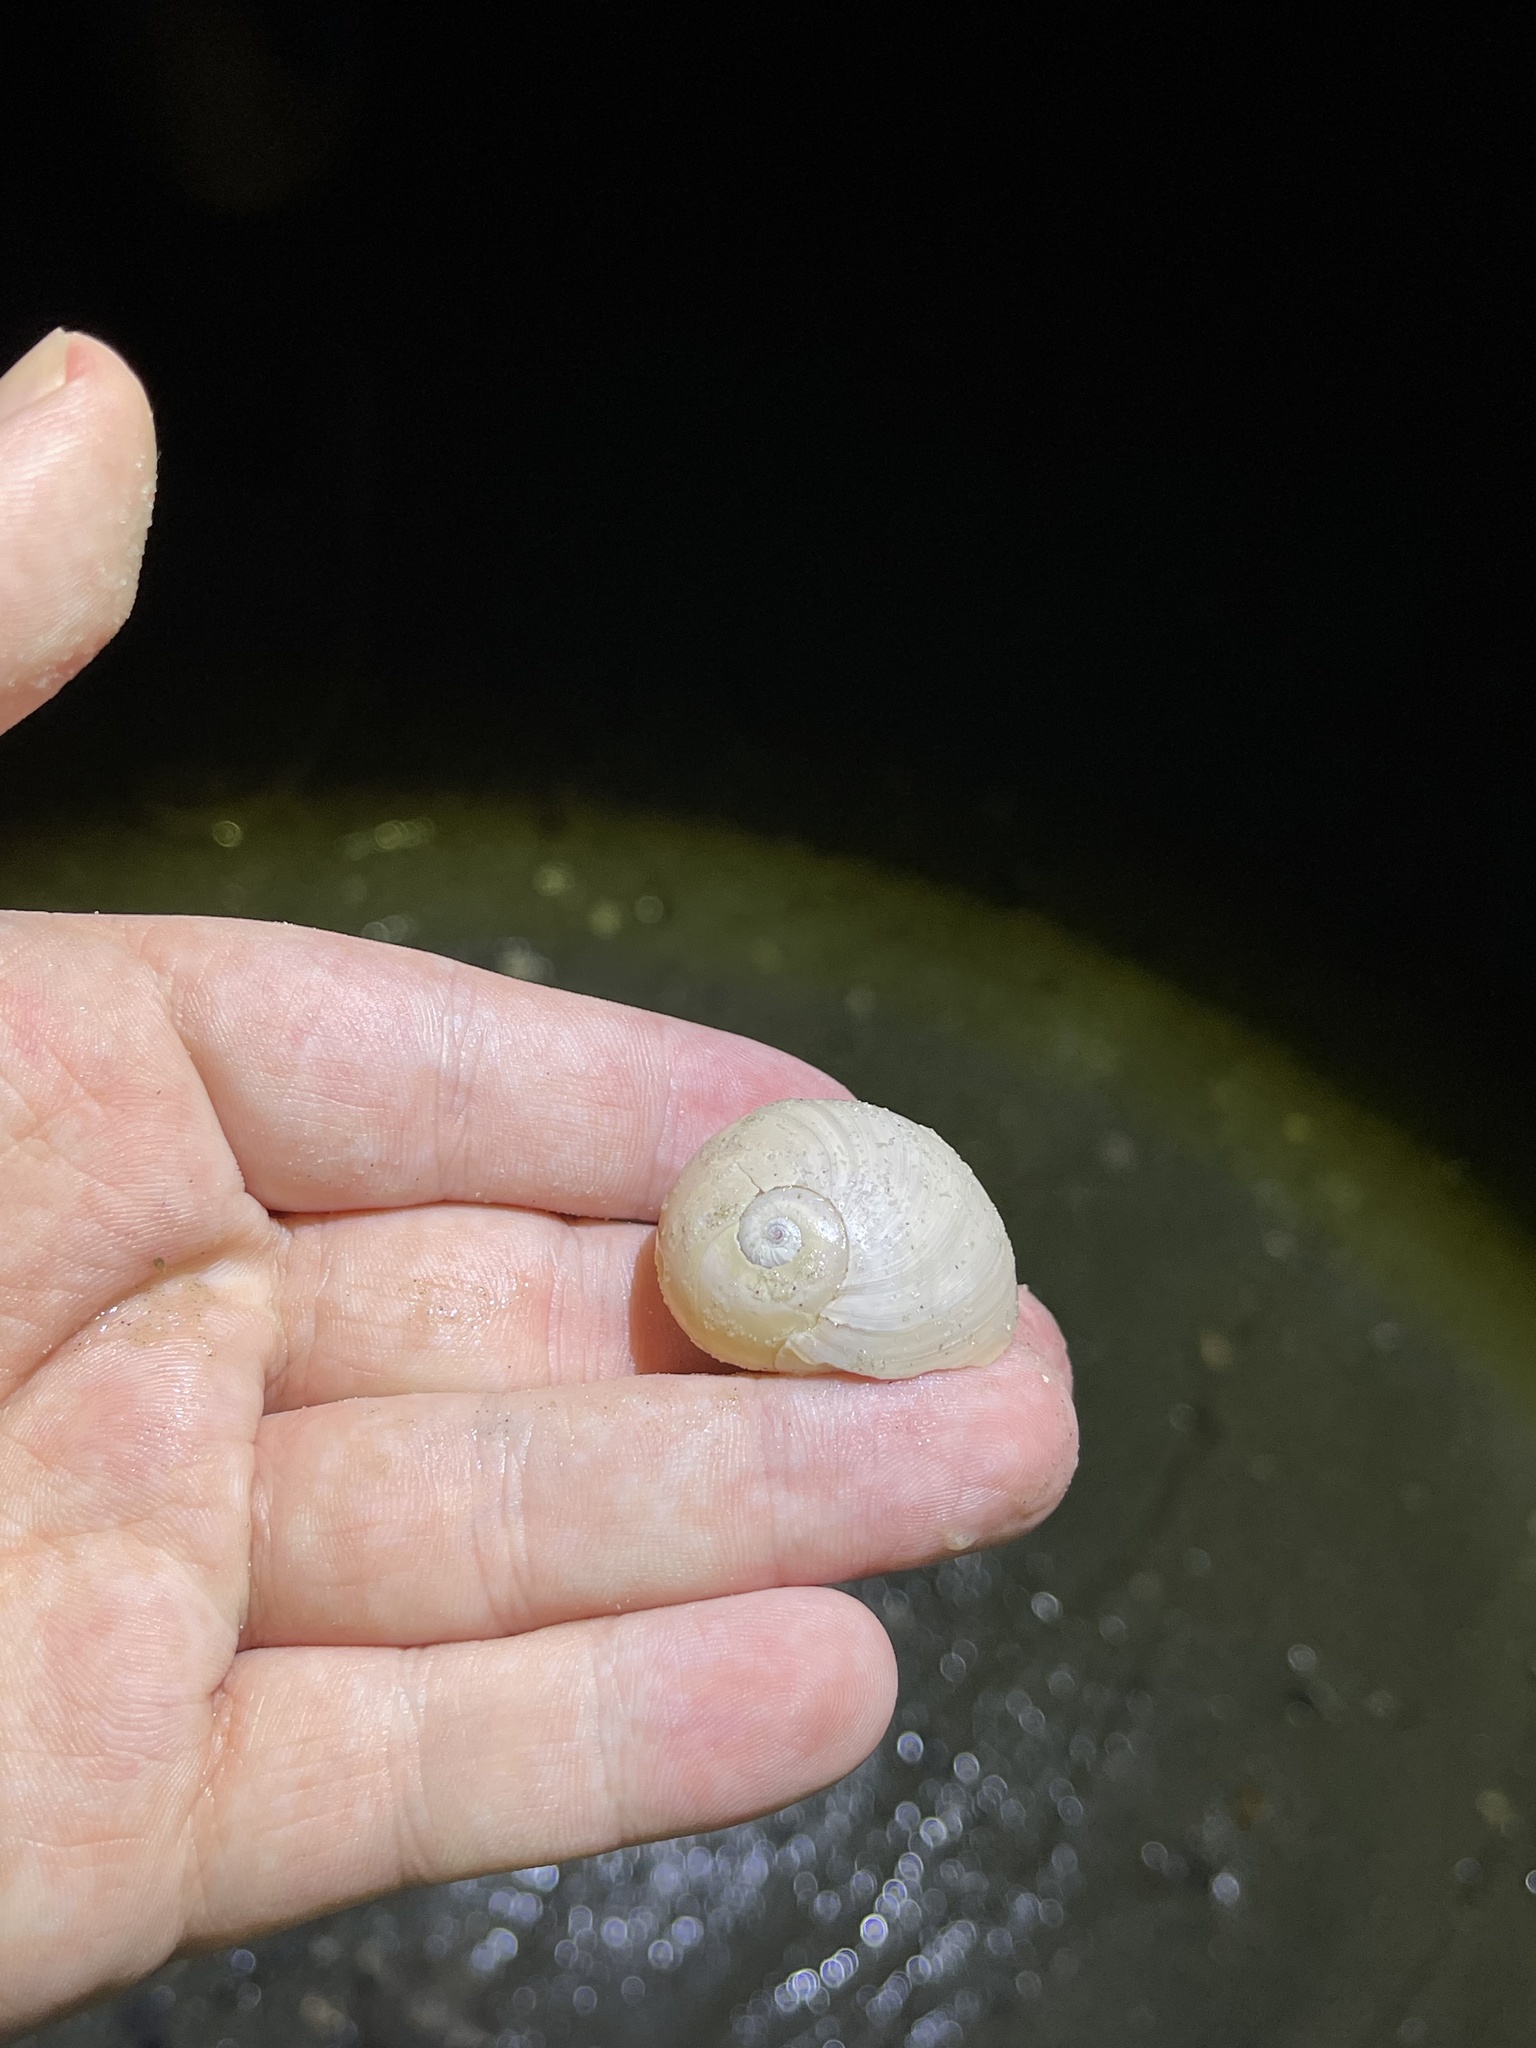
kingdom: Animalia
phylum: Mollusca
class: Gastropoda
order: Littorinimorpha
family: Naticidae
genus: Neverita
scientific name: Neverita duplicata
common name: Lobed moonsnail
